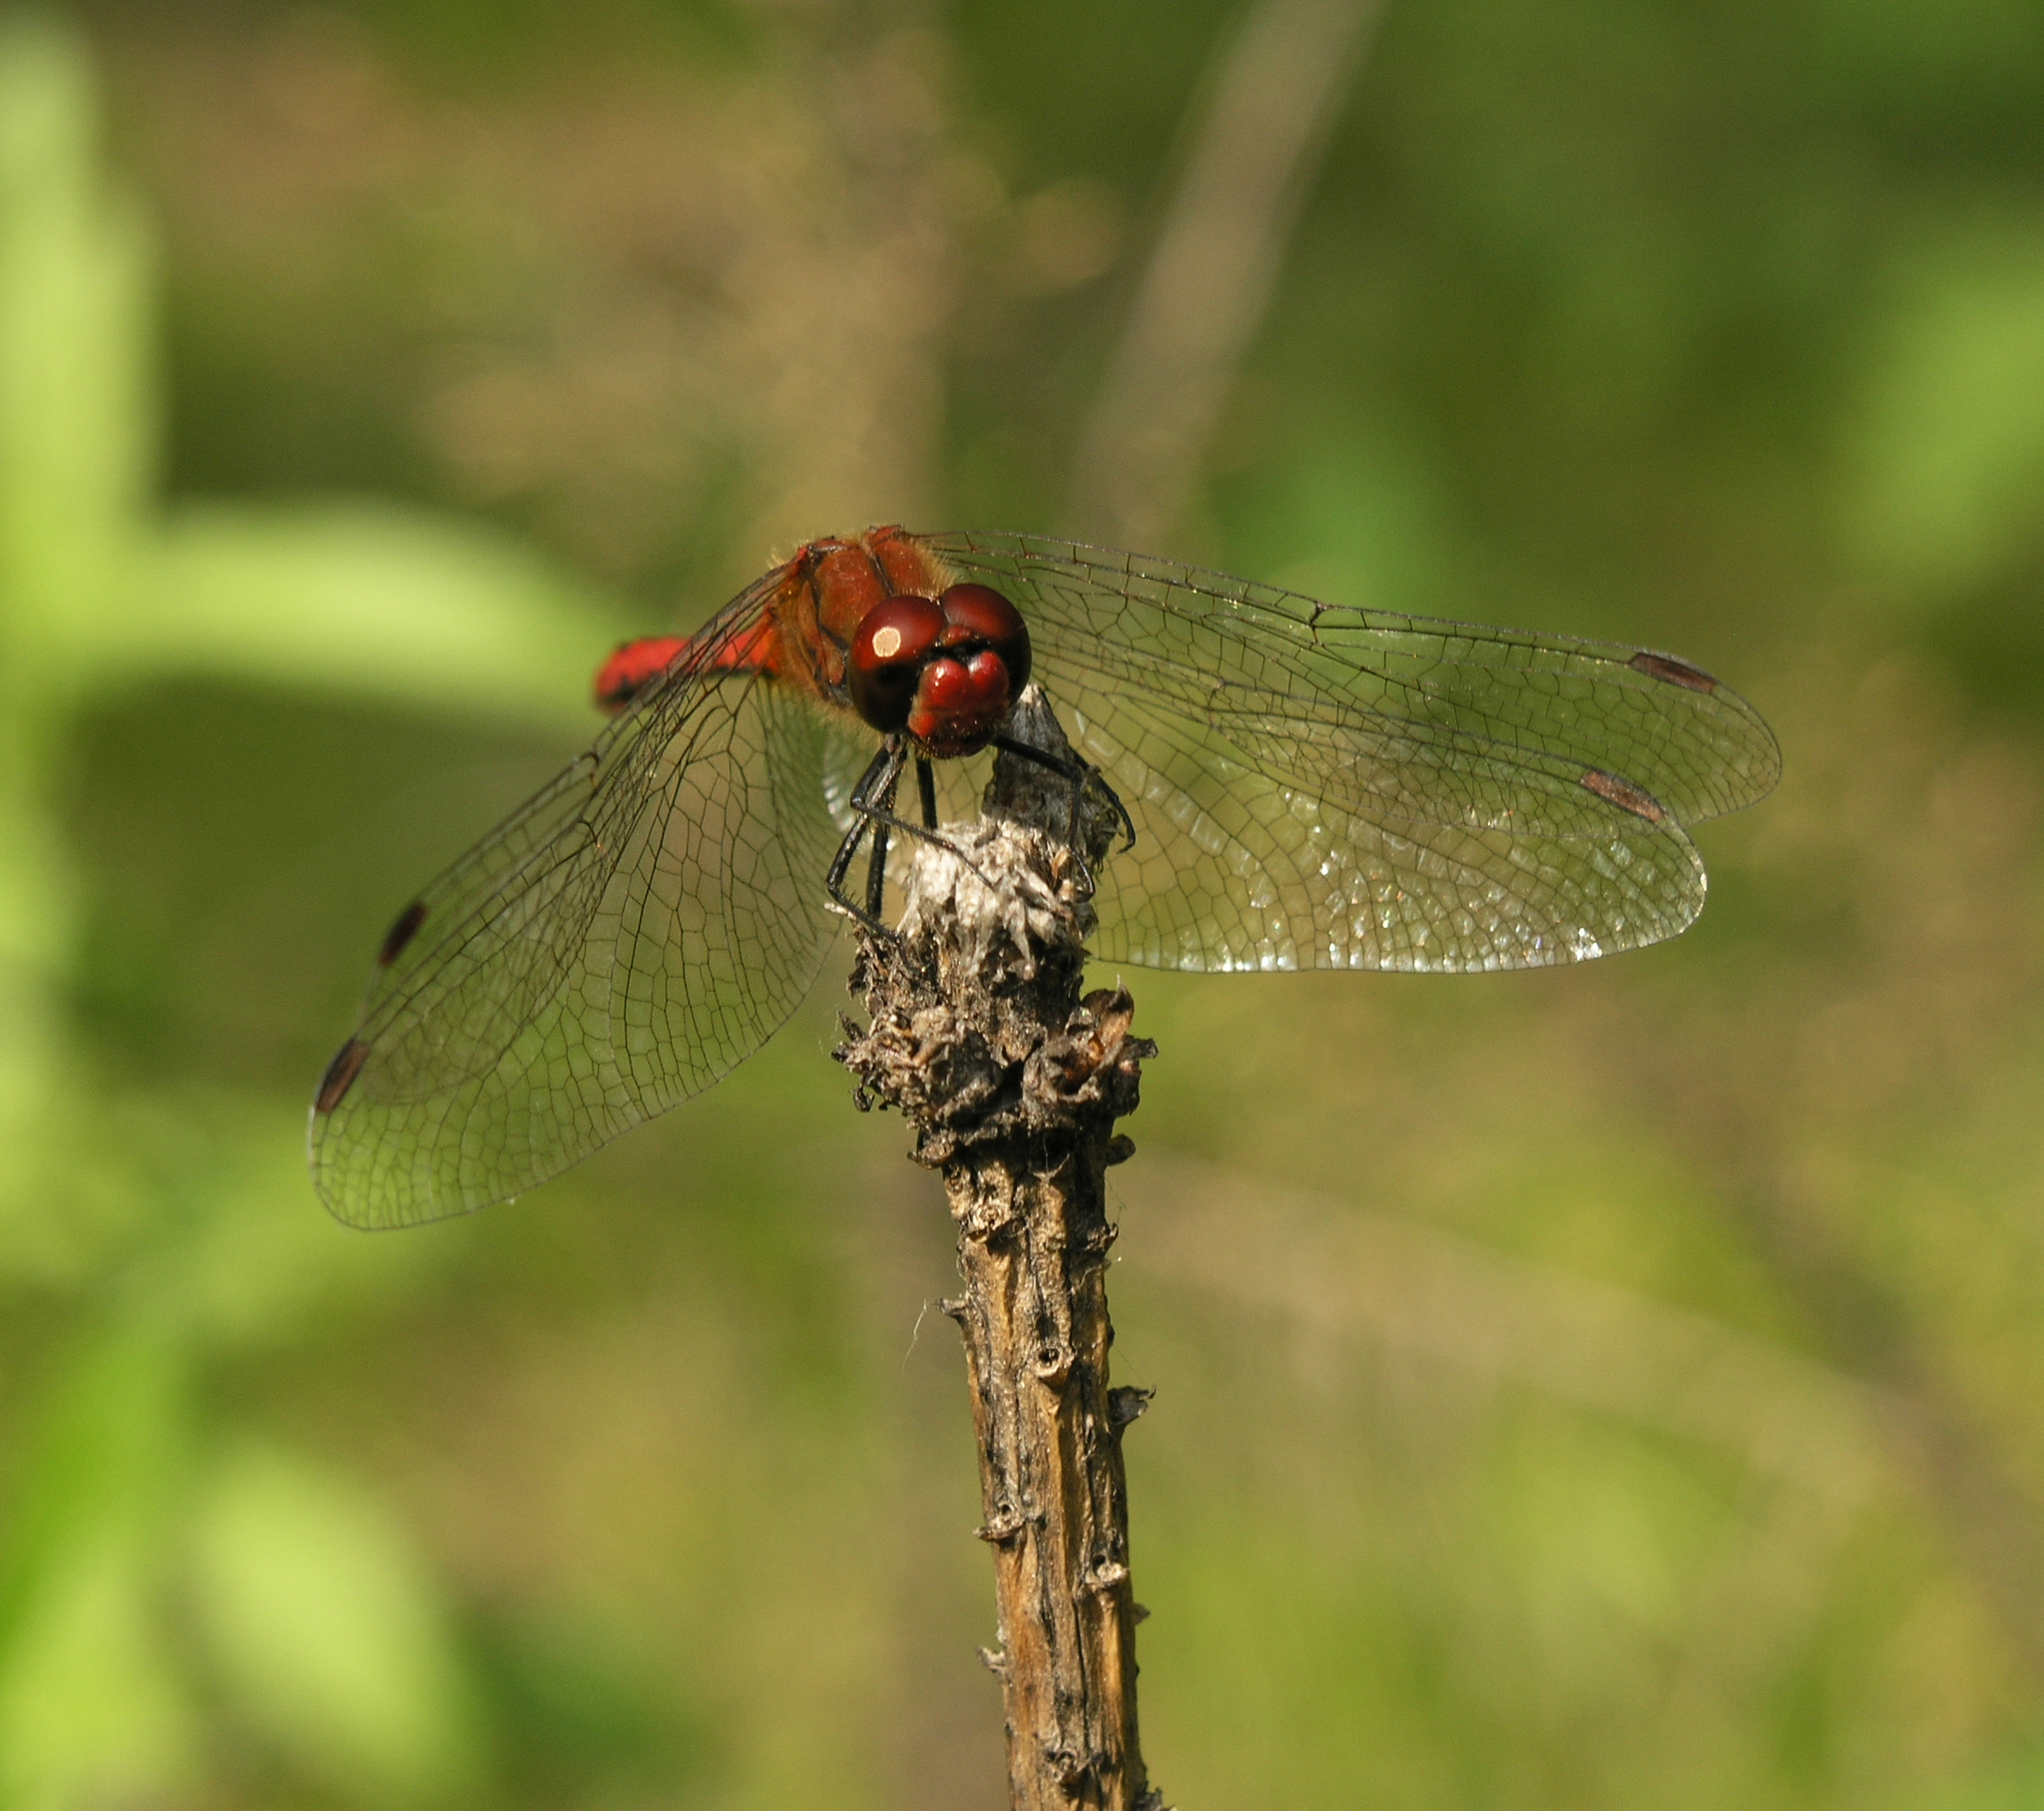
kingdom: Animalia
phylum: Arthropoda
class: Insecta
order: Odonata
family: Libellulidae
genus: Sympetrum
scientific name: Sympetrum sanguineum
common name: Ruddy darter
